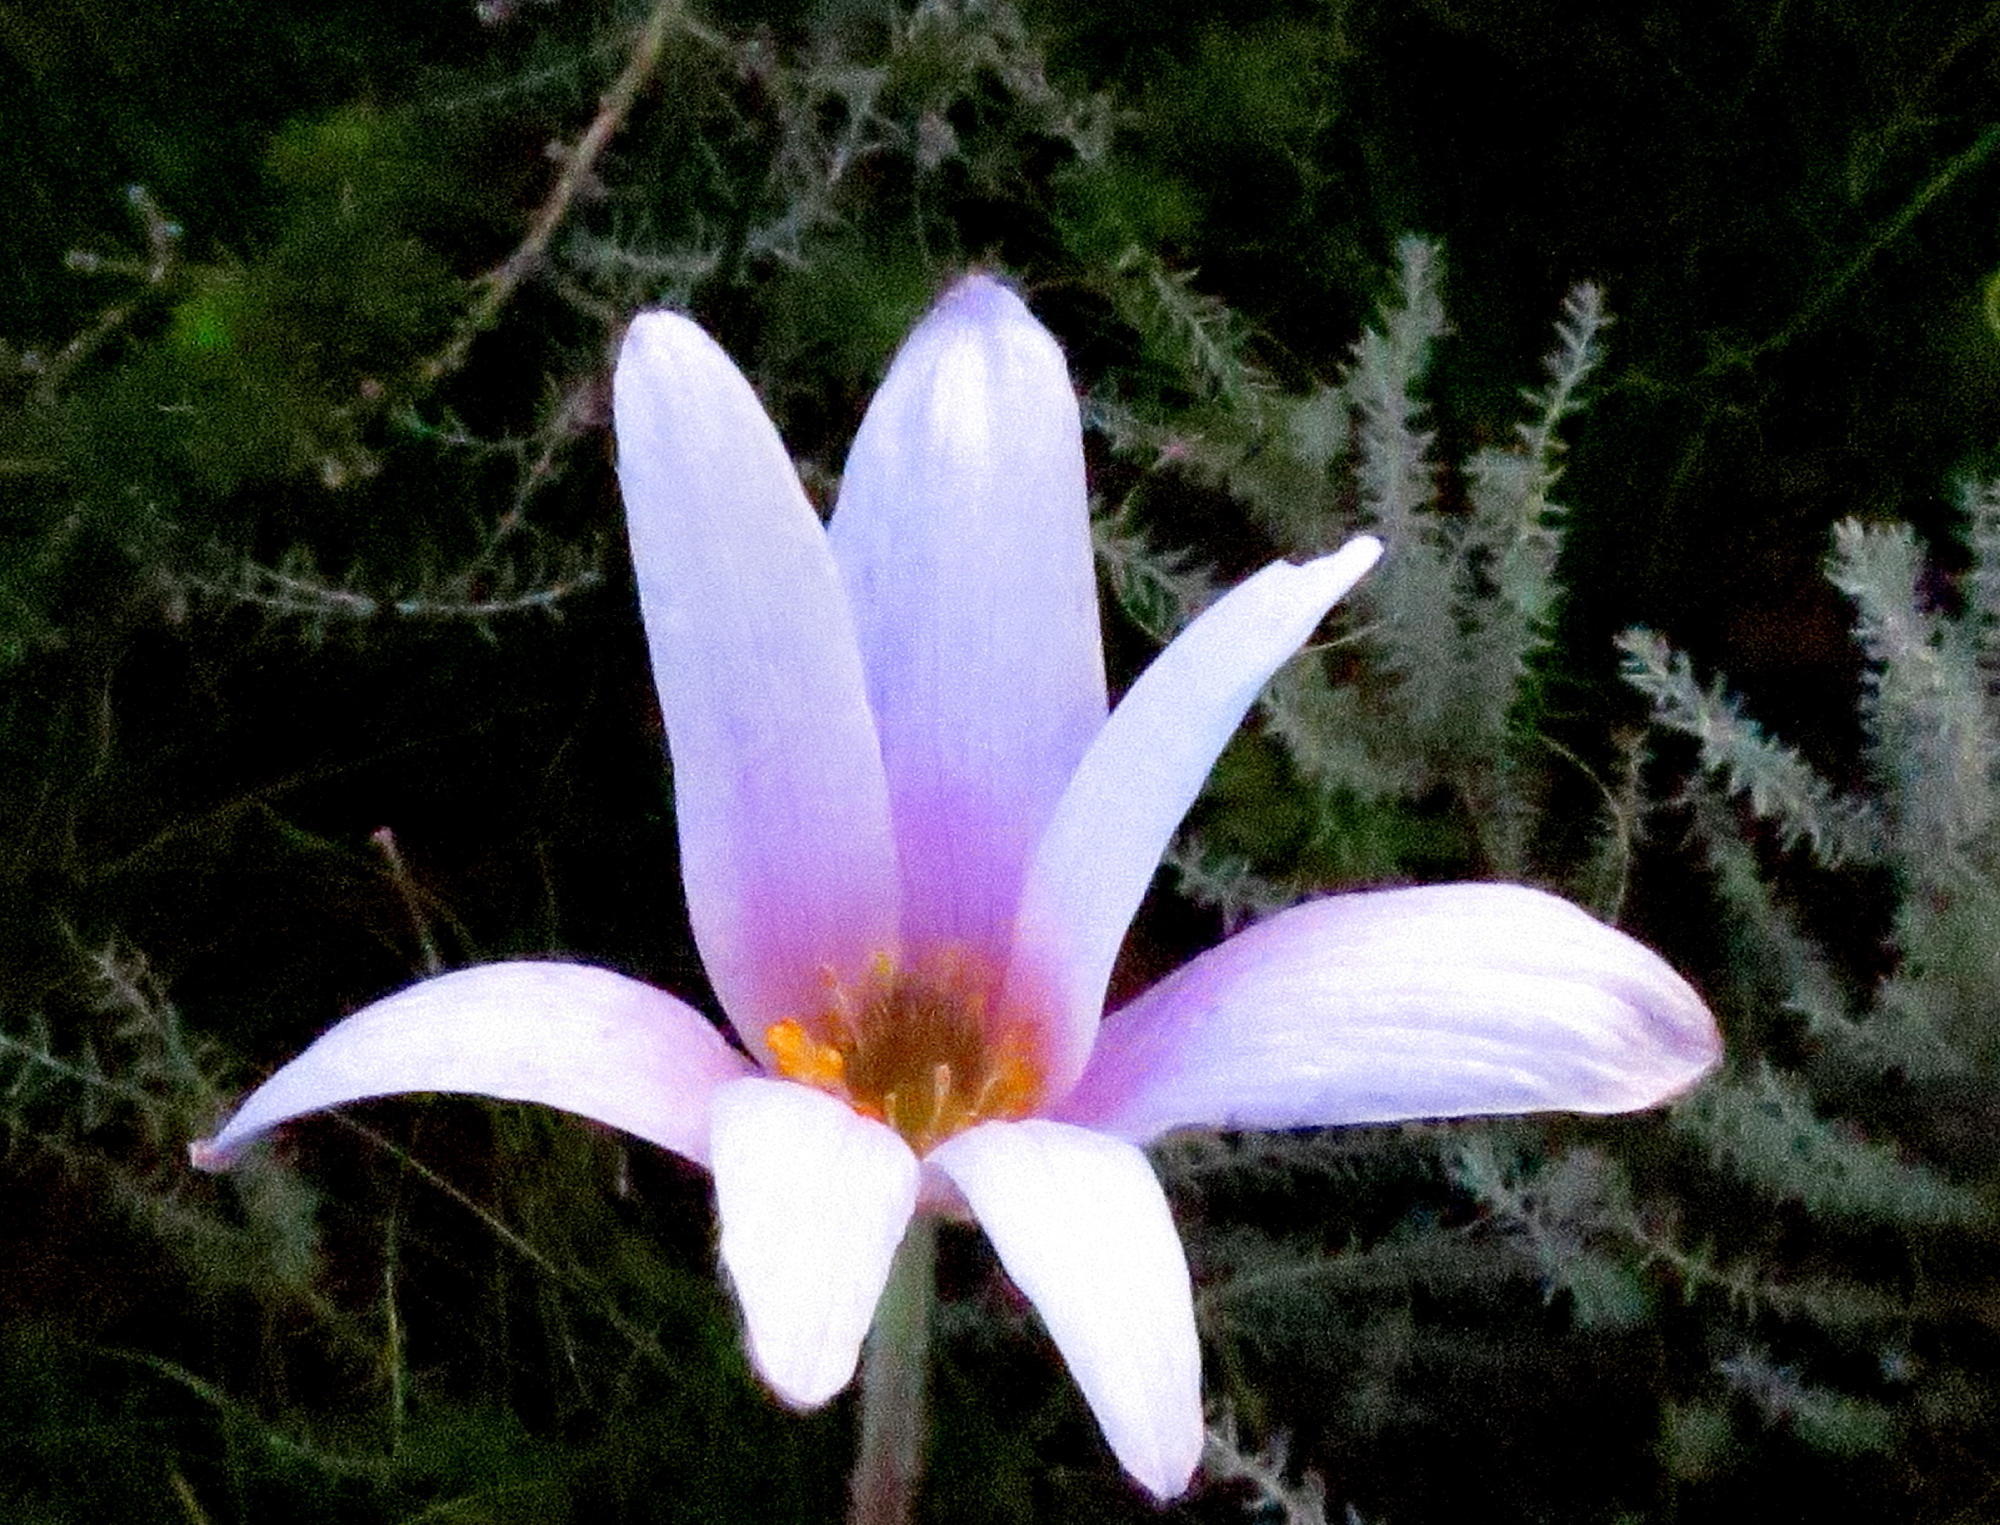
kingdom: Plantae
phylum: Tracheophyta
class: Magnoliopsida
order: Ranunculales
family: Ranunculaceae
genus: Knowltonia
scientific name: Knowltonia tenuifolia
